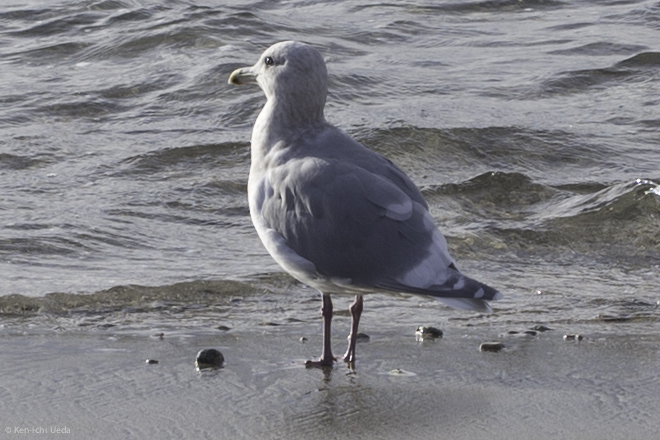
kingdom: Animalia
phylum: Chordata
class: Aves
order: Charadriiformes
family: Laridae
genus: Larus
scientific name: Larus glaucescens
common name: Glaucous-winged gull
